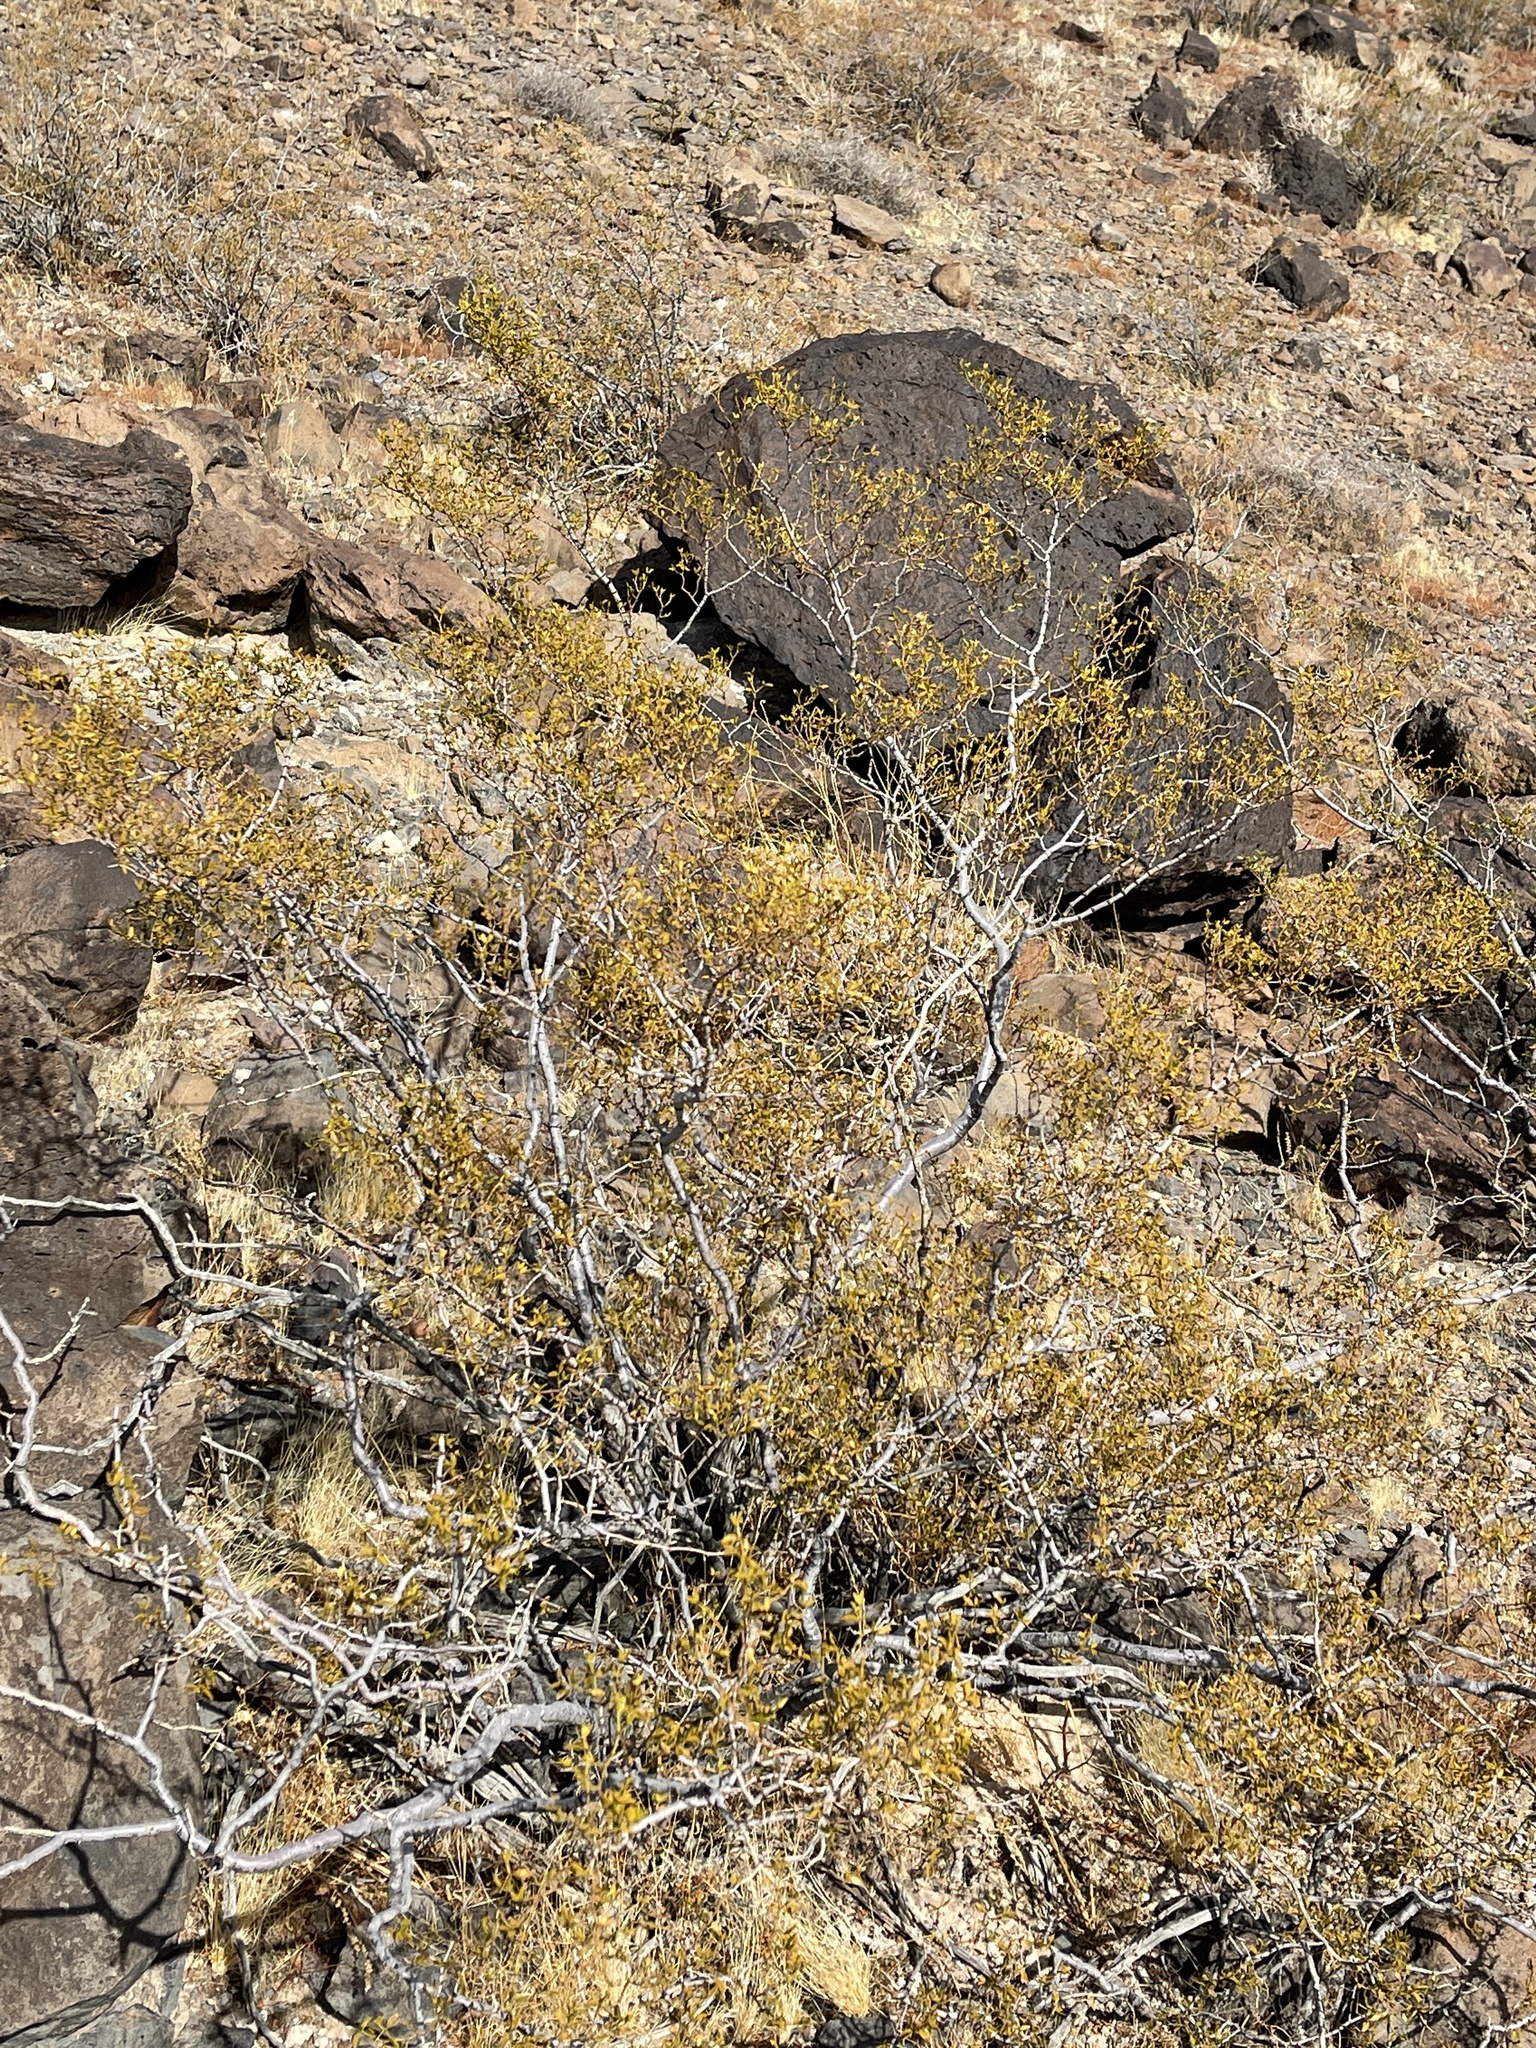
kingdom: Plantae
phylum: Tracheophyta
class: Magnoliopsida
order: Zygophyllales
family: Zygophyllaceae
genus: Larrea
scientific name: Larrea tridentata
